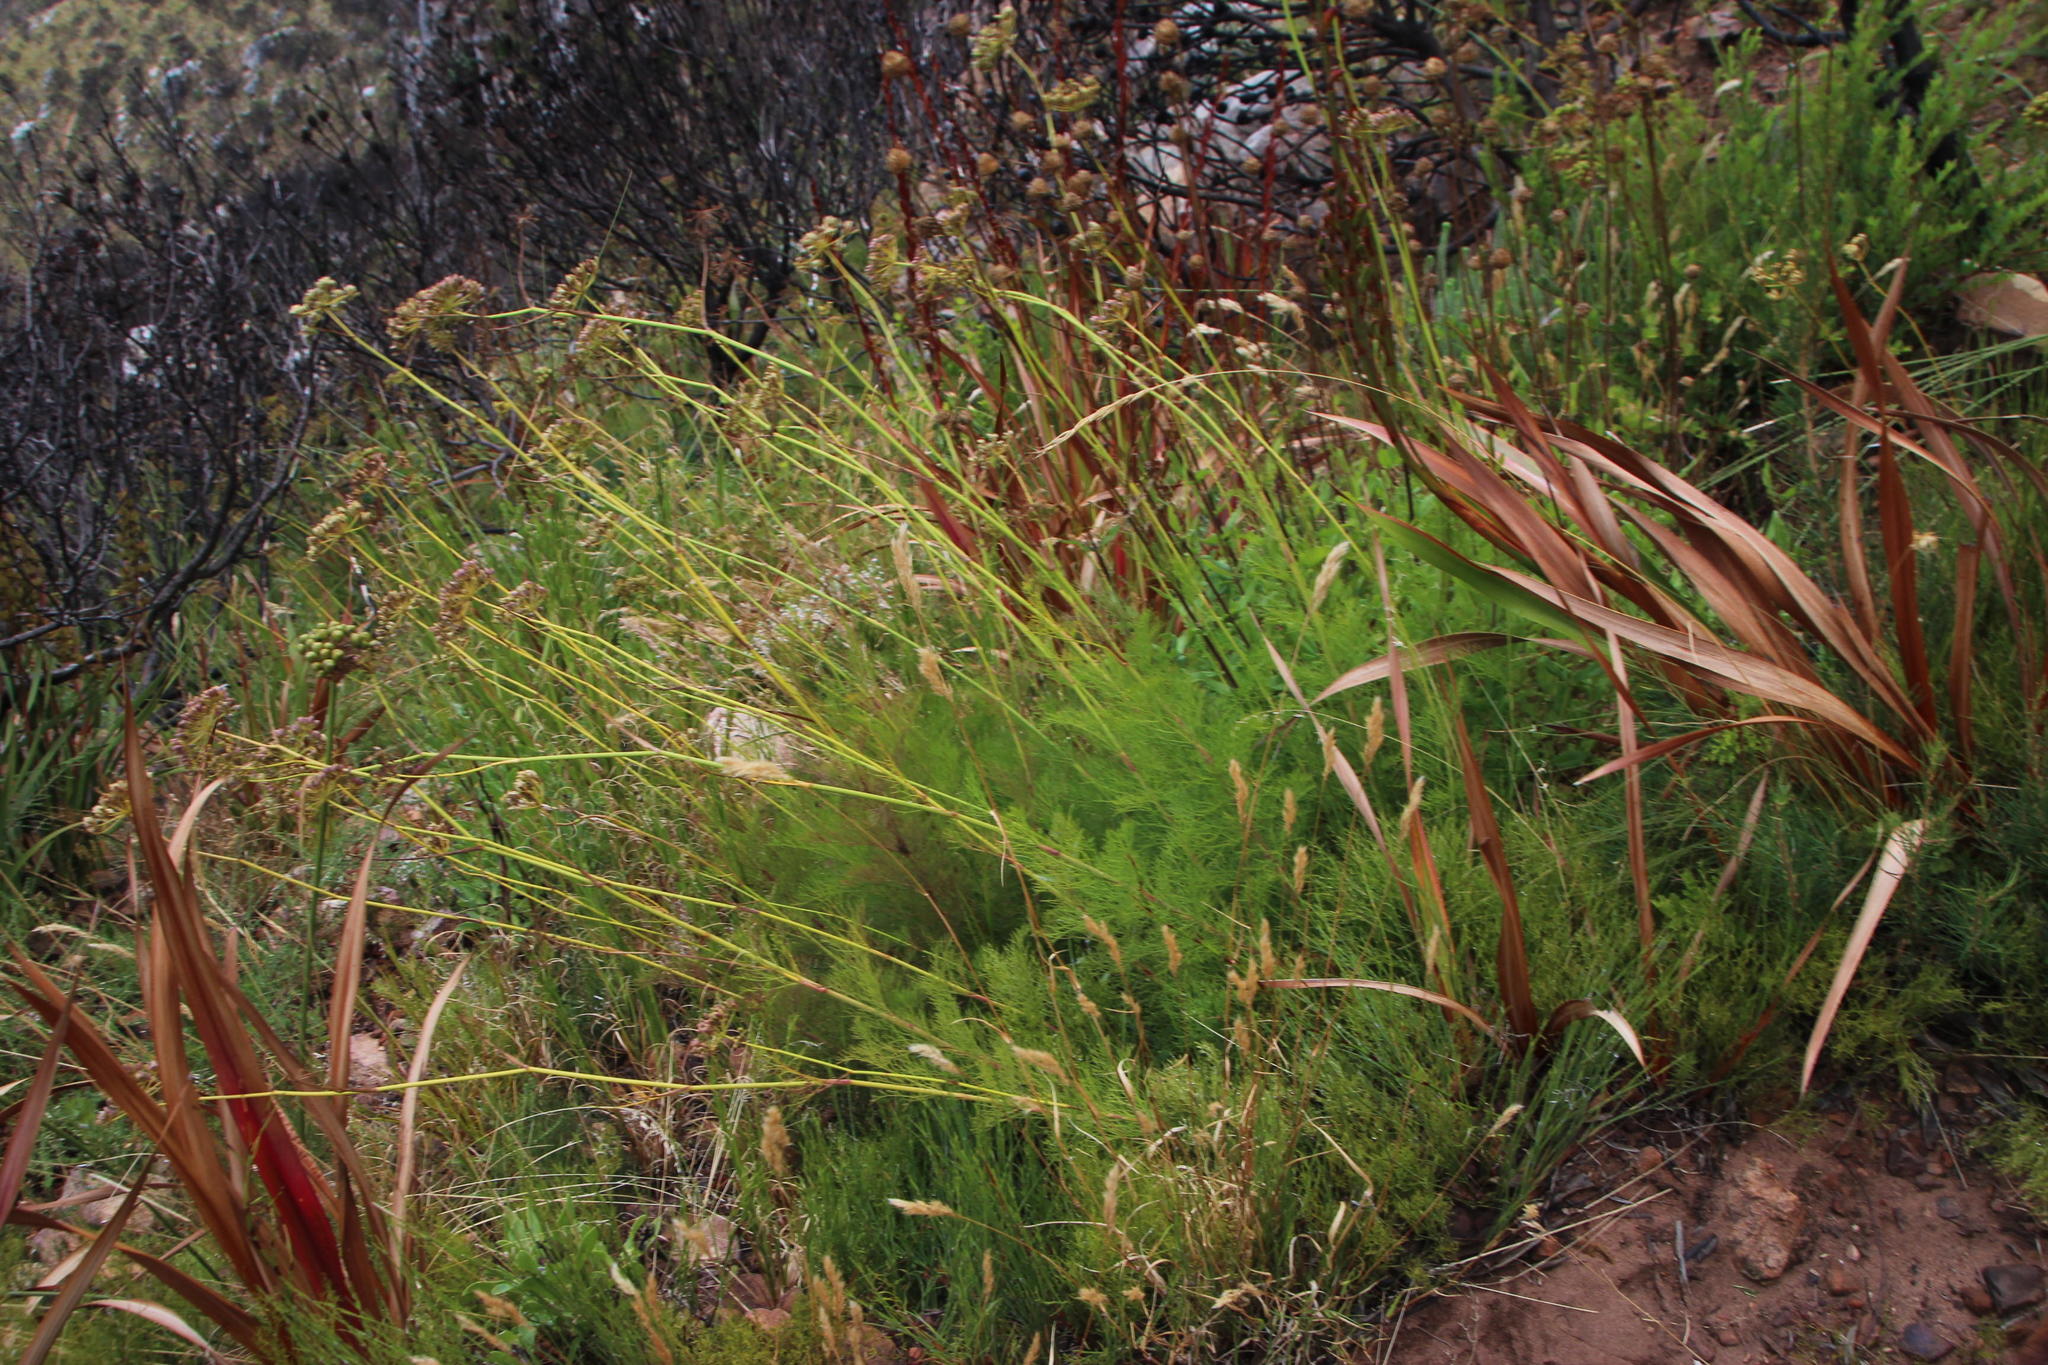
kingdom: Plantae
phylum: Tracheophyta
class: Magnoliopsida
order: Apiales
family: Apiaceae
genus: Nanobubon
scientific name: Nanobubon strictum
